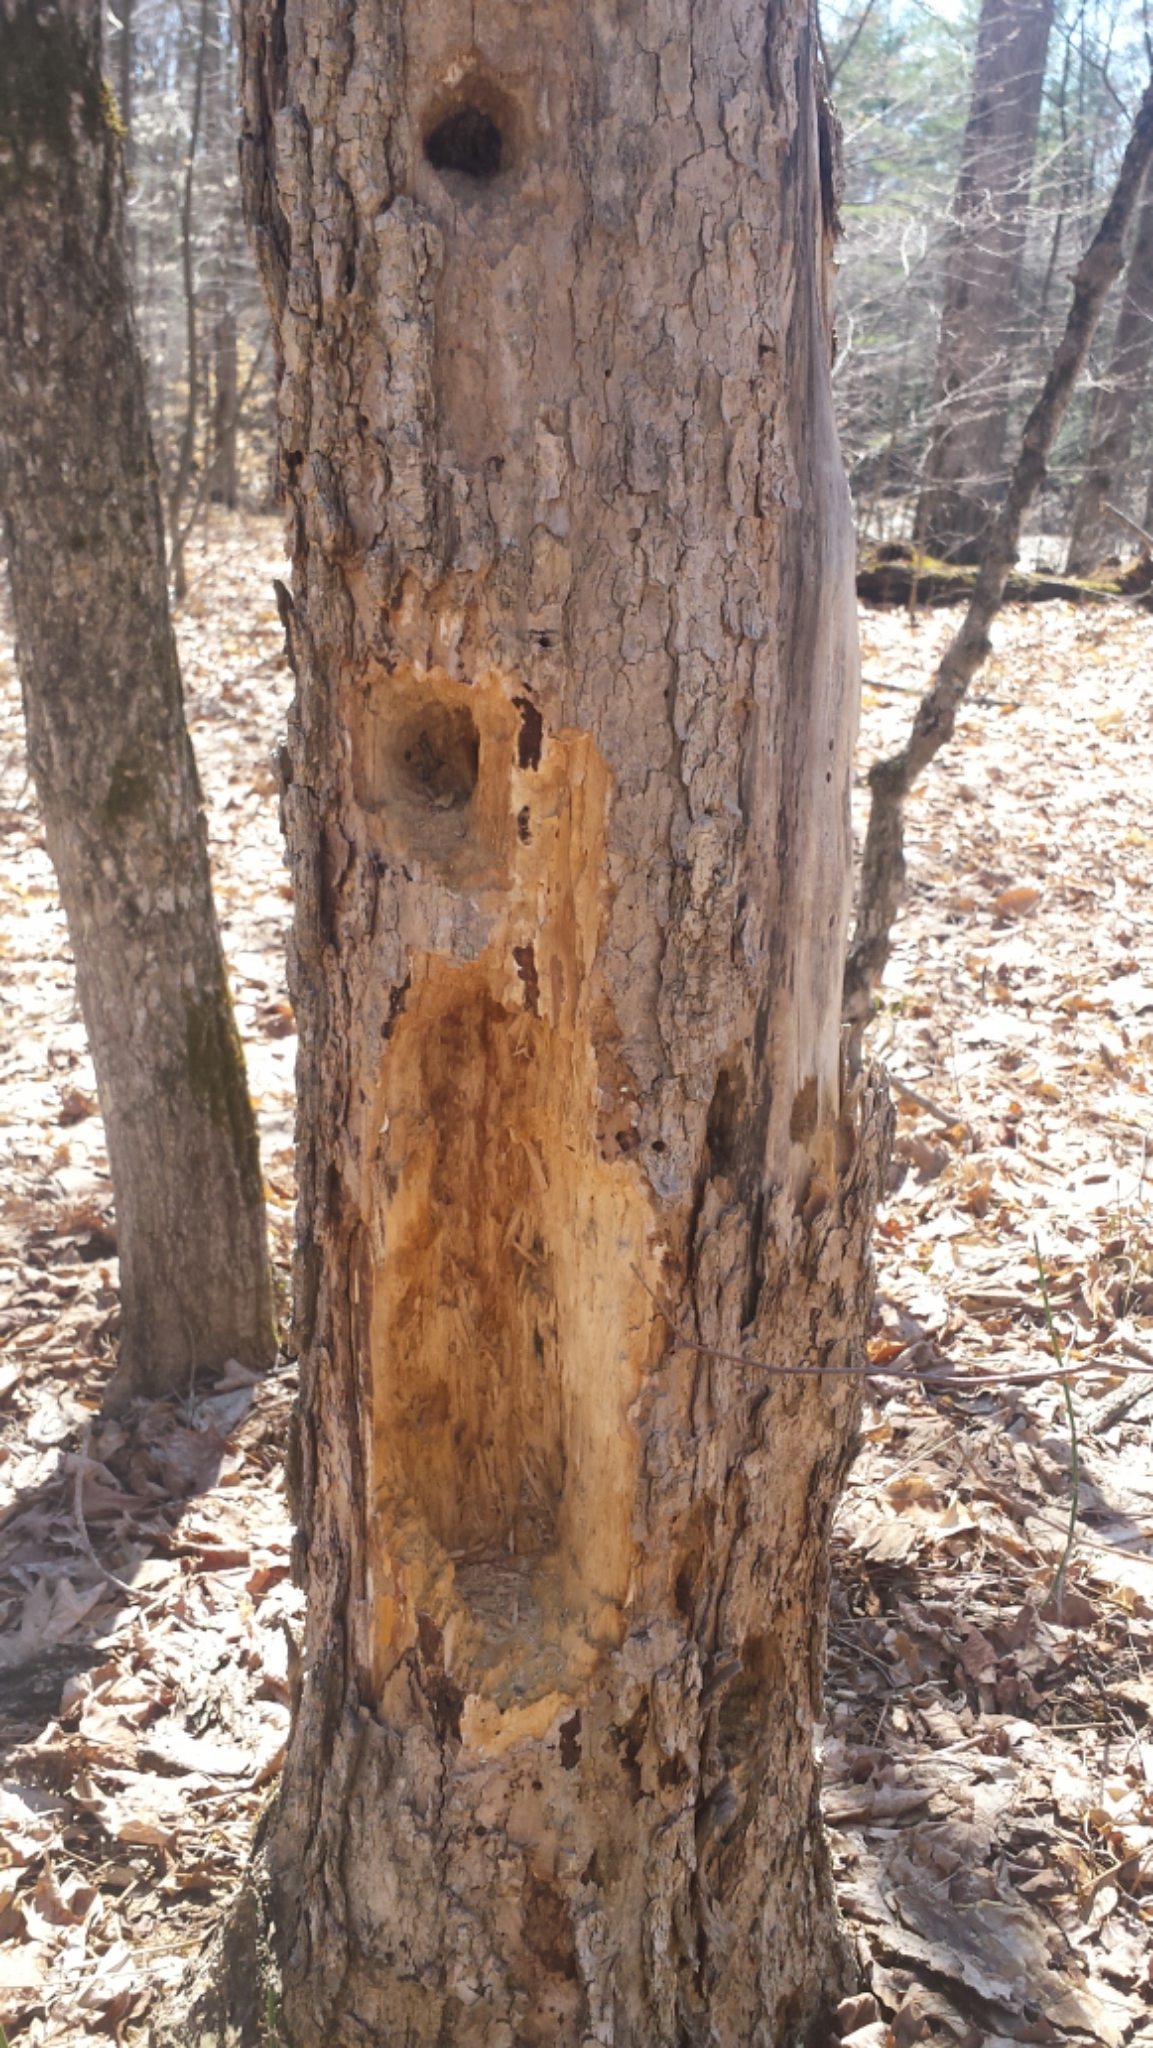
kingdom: Animalia
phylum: Chordata
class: Aves
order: Piciformes
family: Picidae
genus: Dryocopus
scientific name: Dryocopus pileatus
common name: Pileated woodpecker
